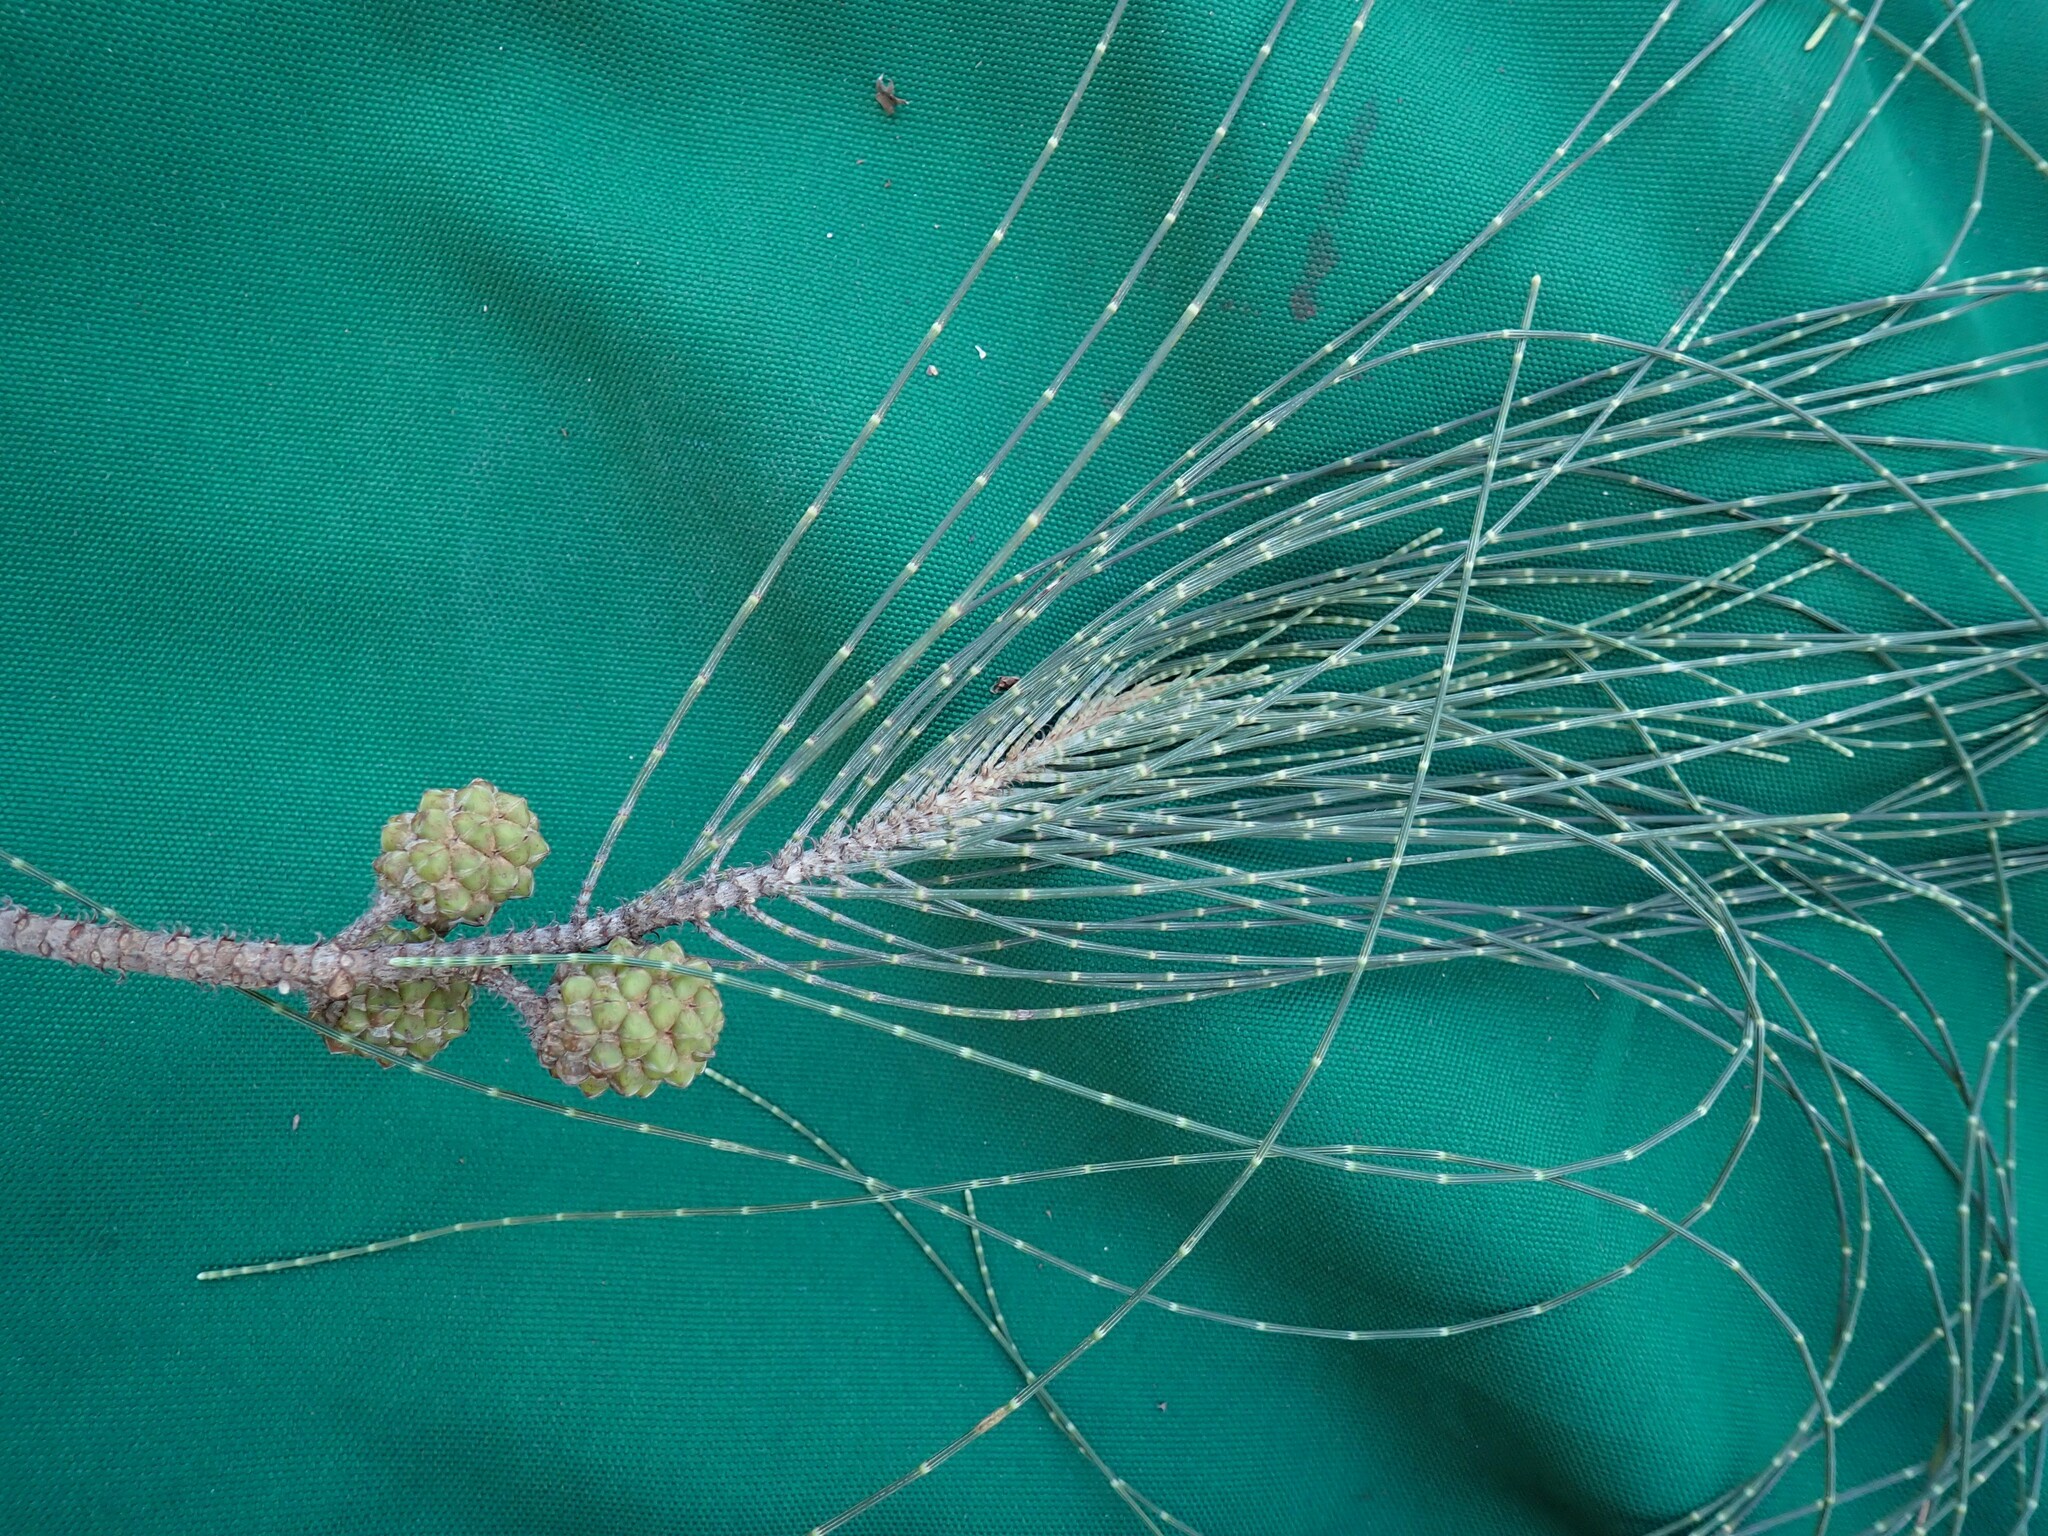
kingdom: Plantae
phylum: Tracheophyta
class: Magnoliopsida
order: Fagales
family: Casuarinaceae
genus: Casuarina
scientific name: Casuarina equisetifolia
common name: Beach sheoak
